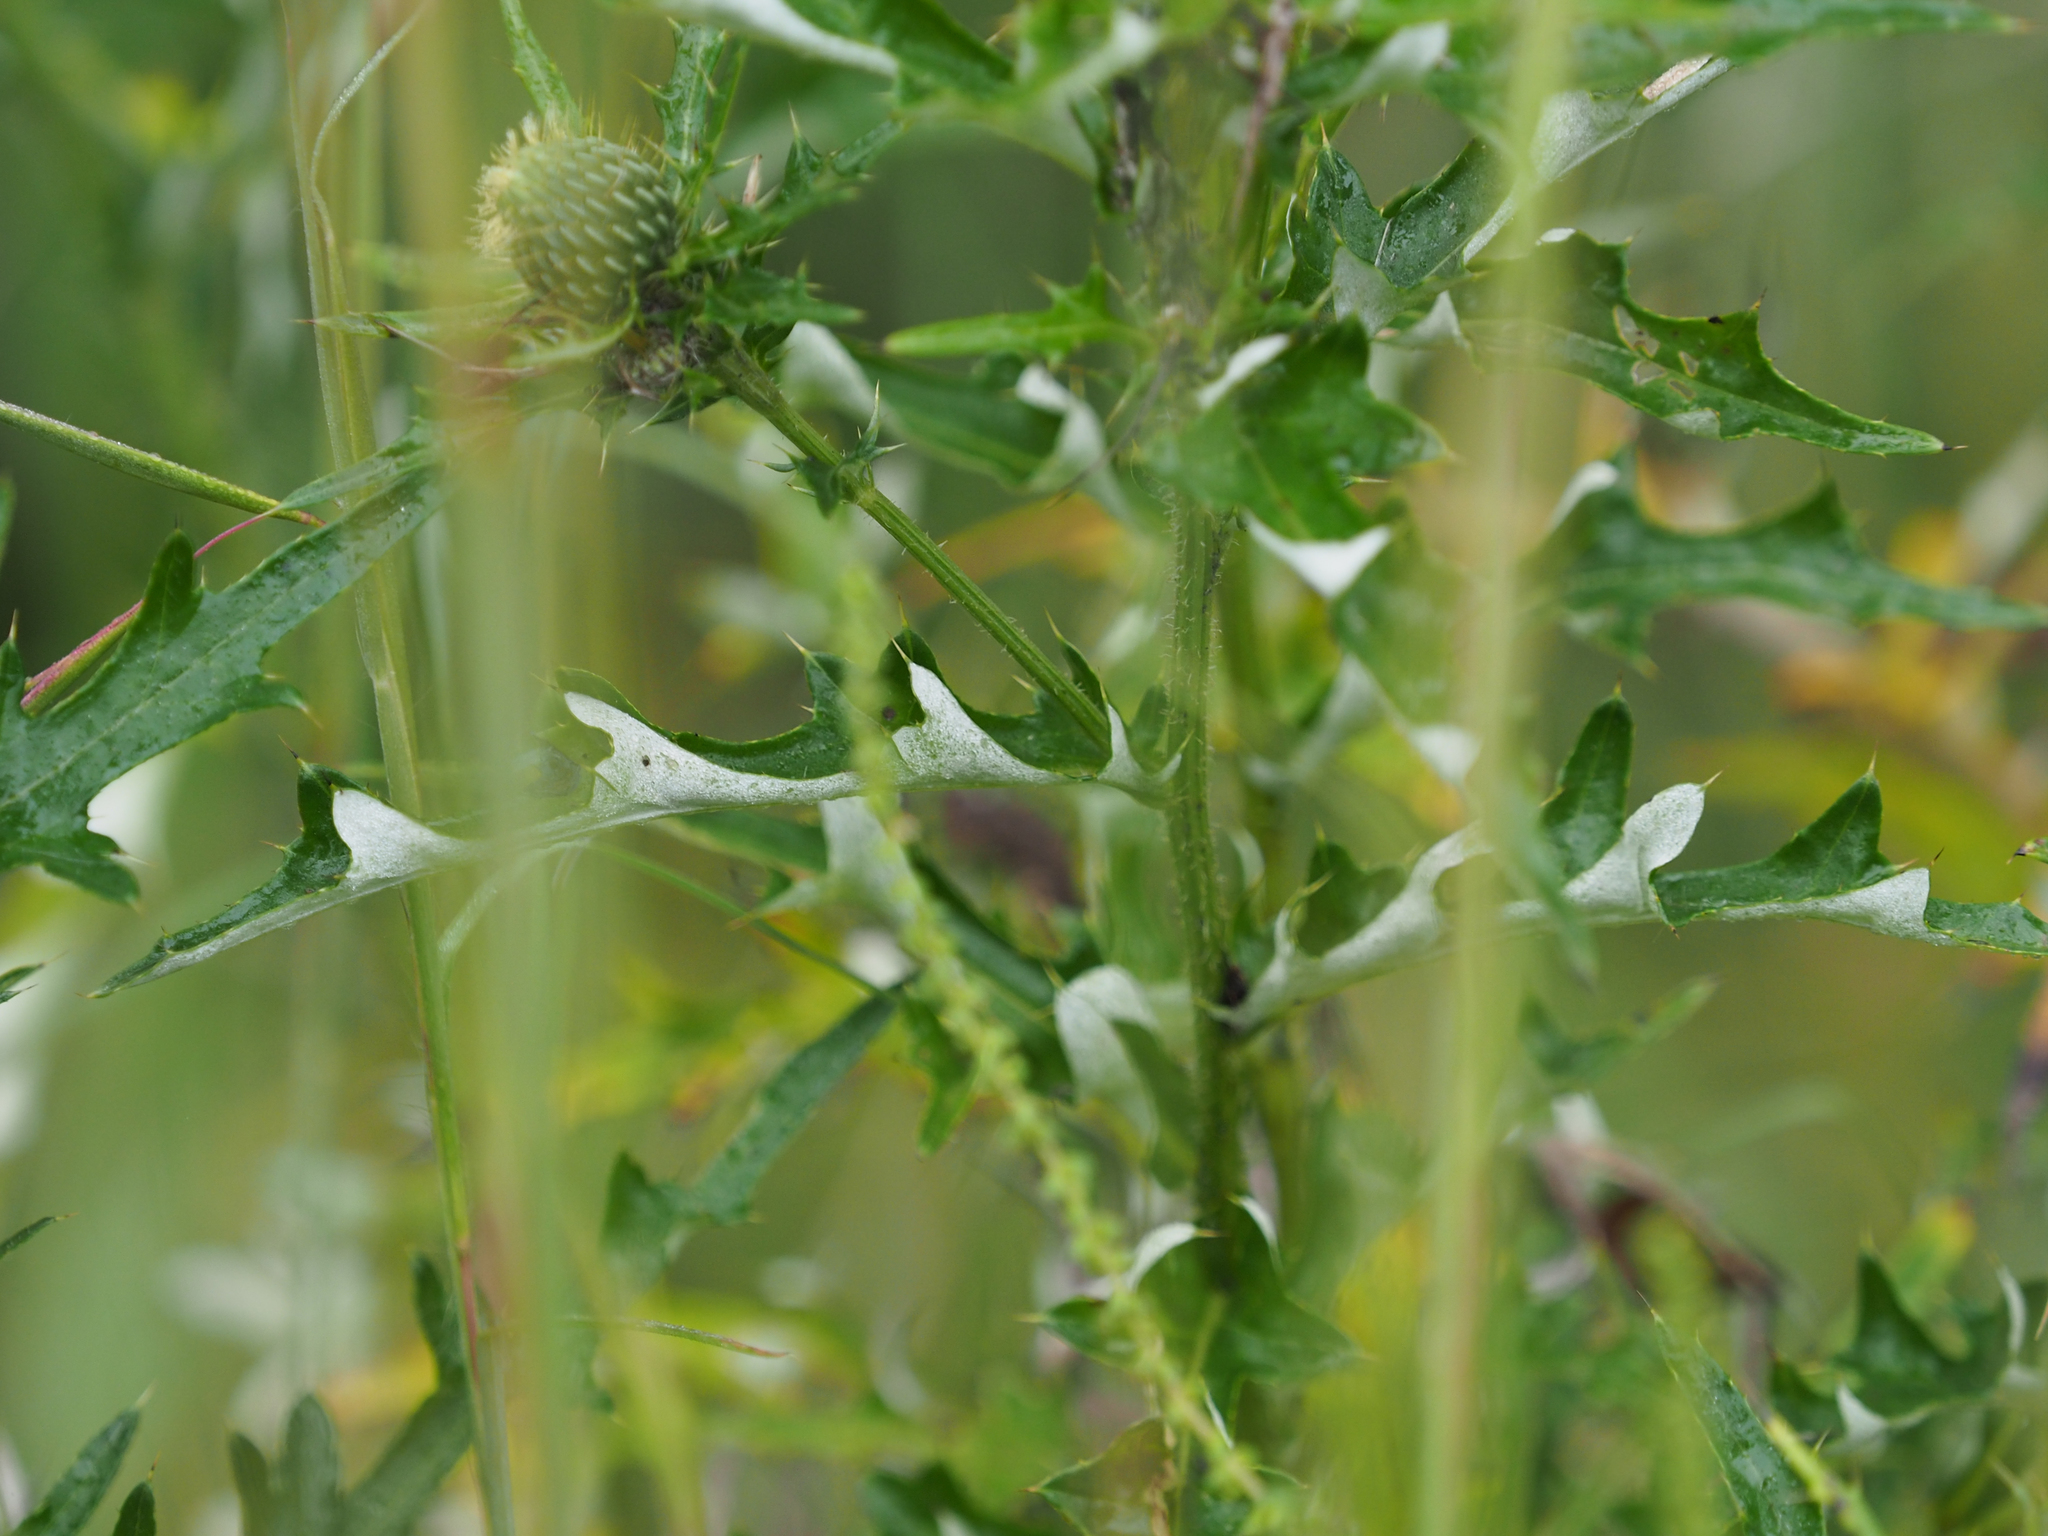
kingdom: Plantae
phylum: Tracheophyta
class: Magnoliopsida
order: Asterales
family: Asteraceae
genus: Cirsium
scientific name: Cirsium discolor
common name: Field thistle
